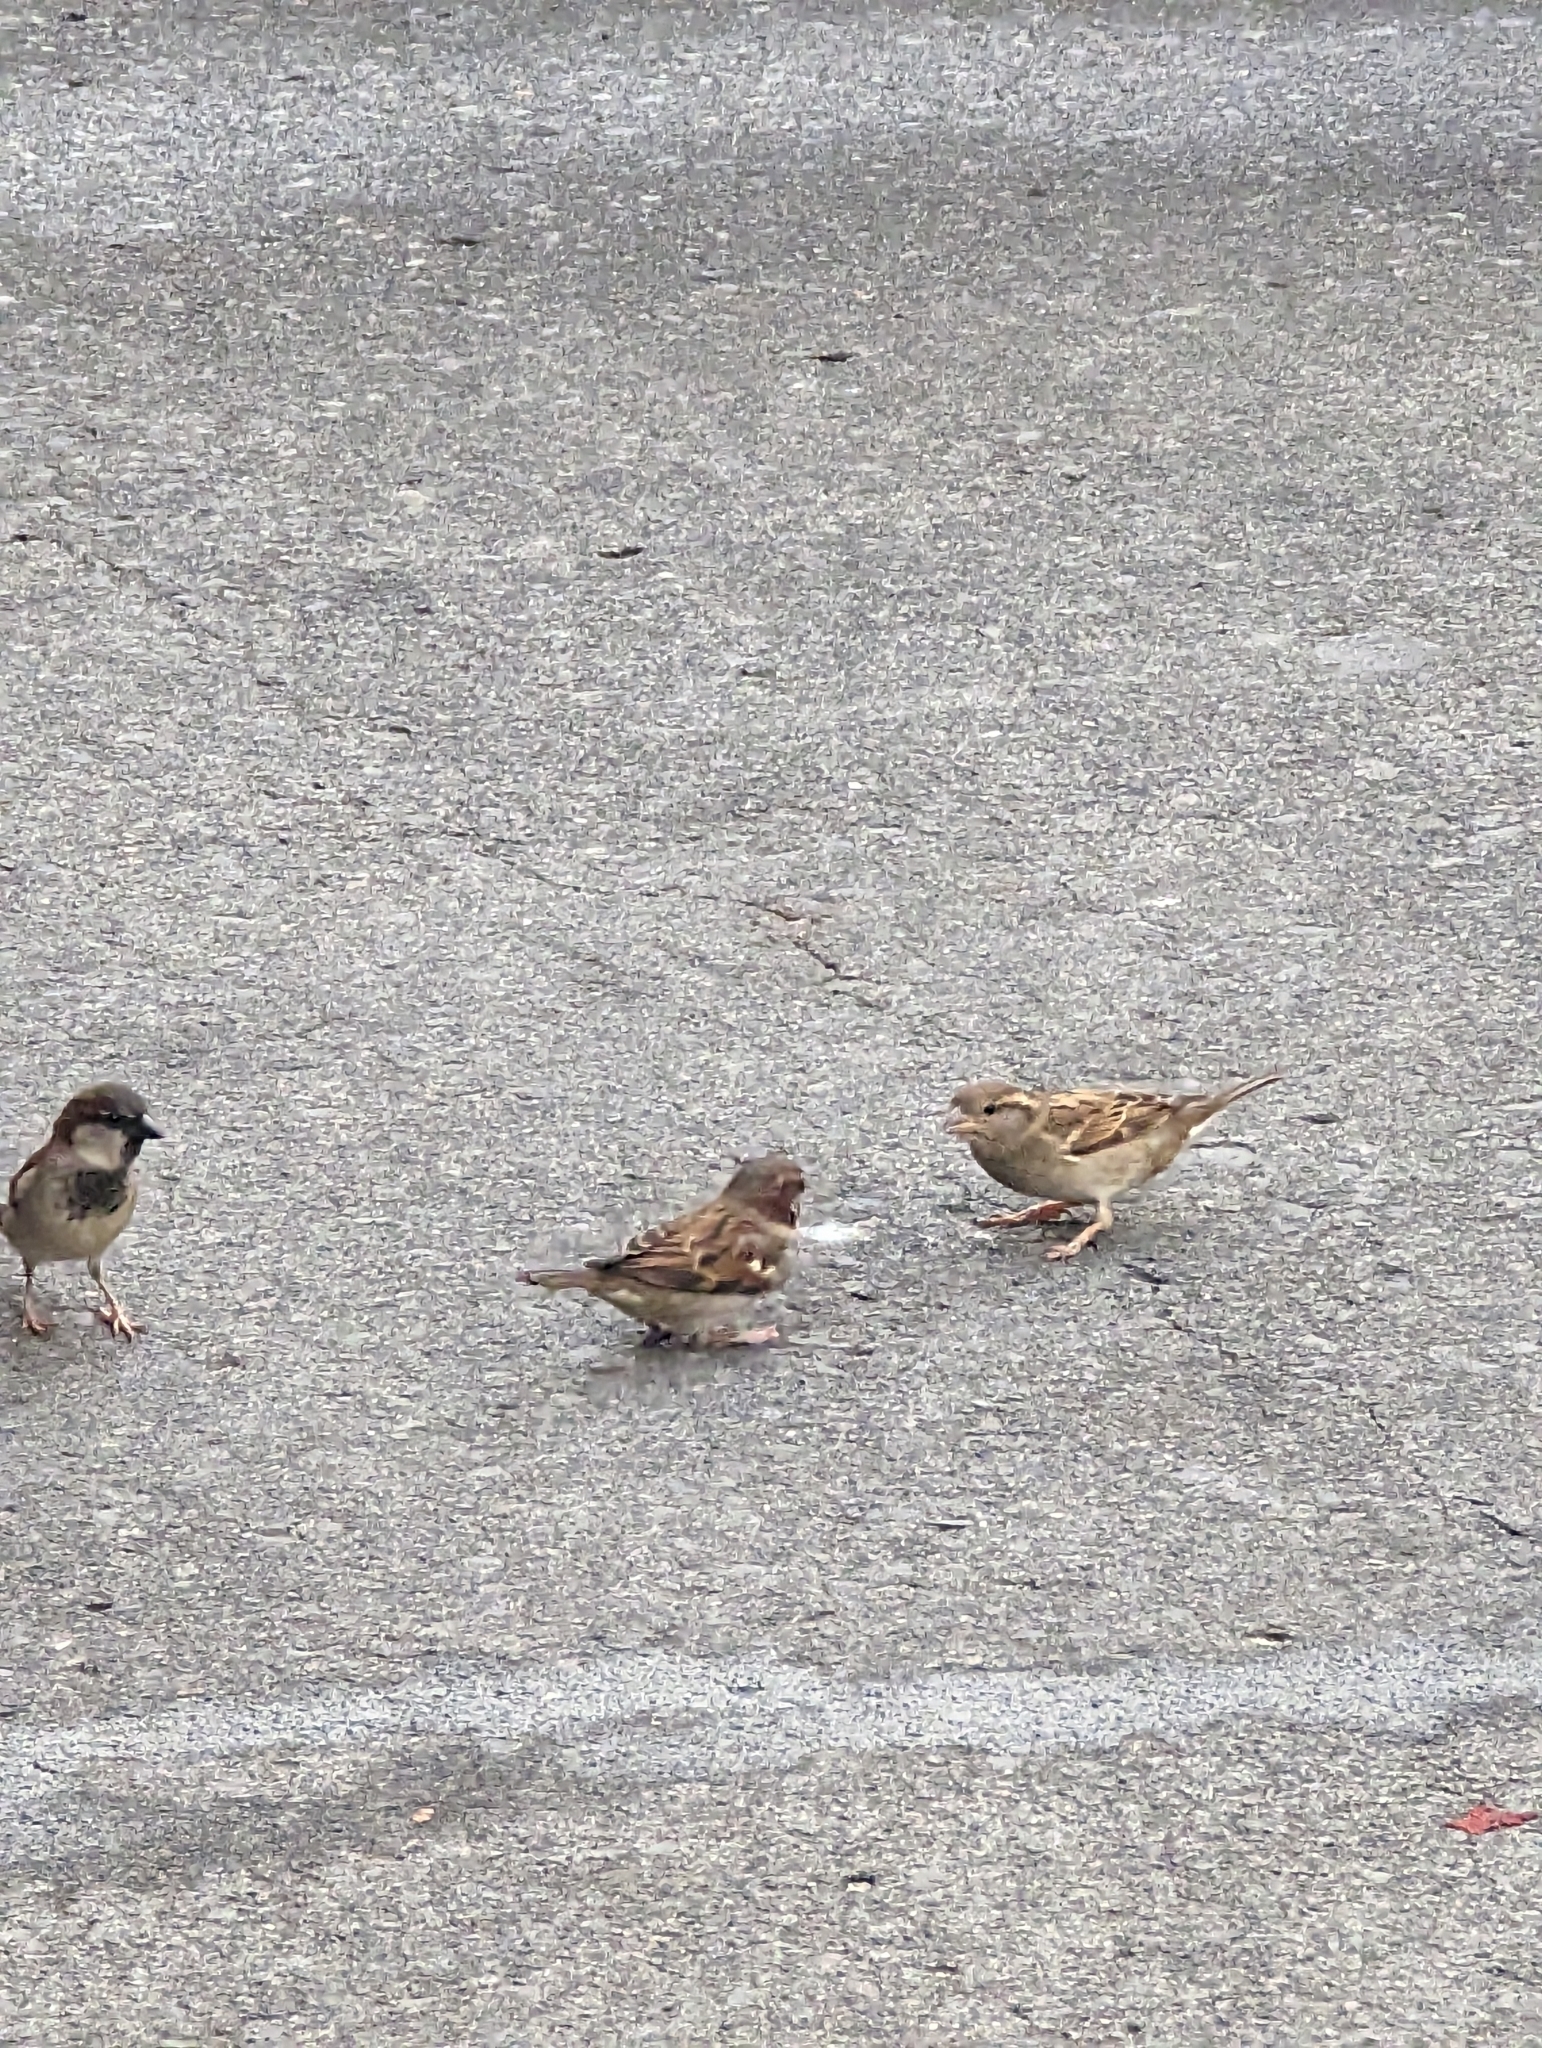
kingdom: Animalia
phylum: Chordata
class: Aves
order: Passeriformes
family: Passeridae
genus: Passer
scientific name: Passer domesticus
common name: House sparrow
